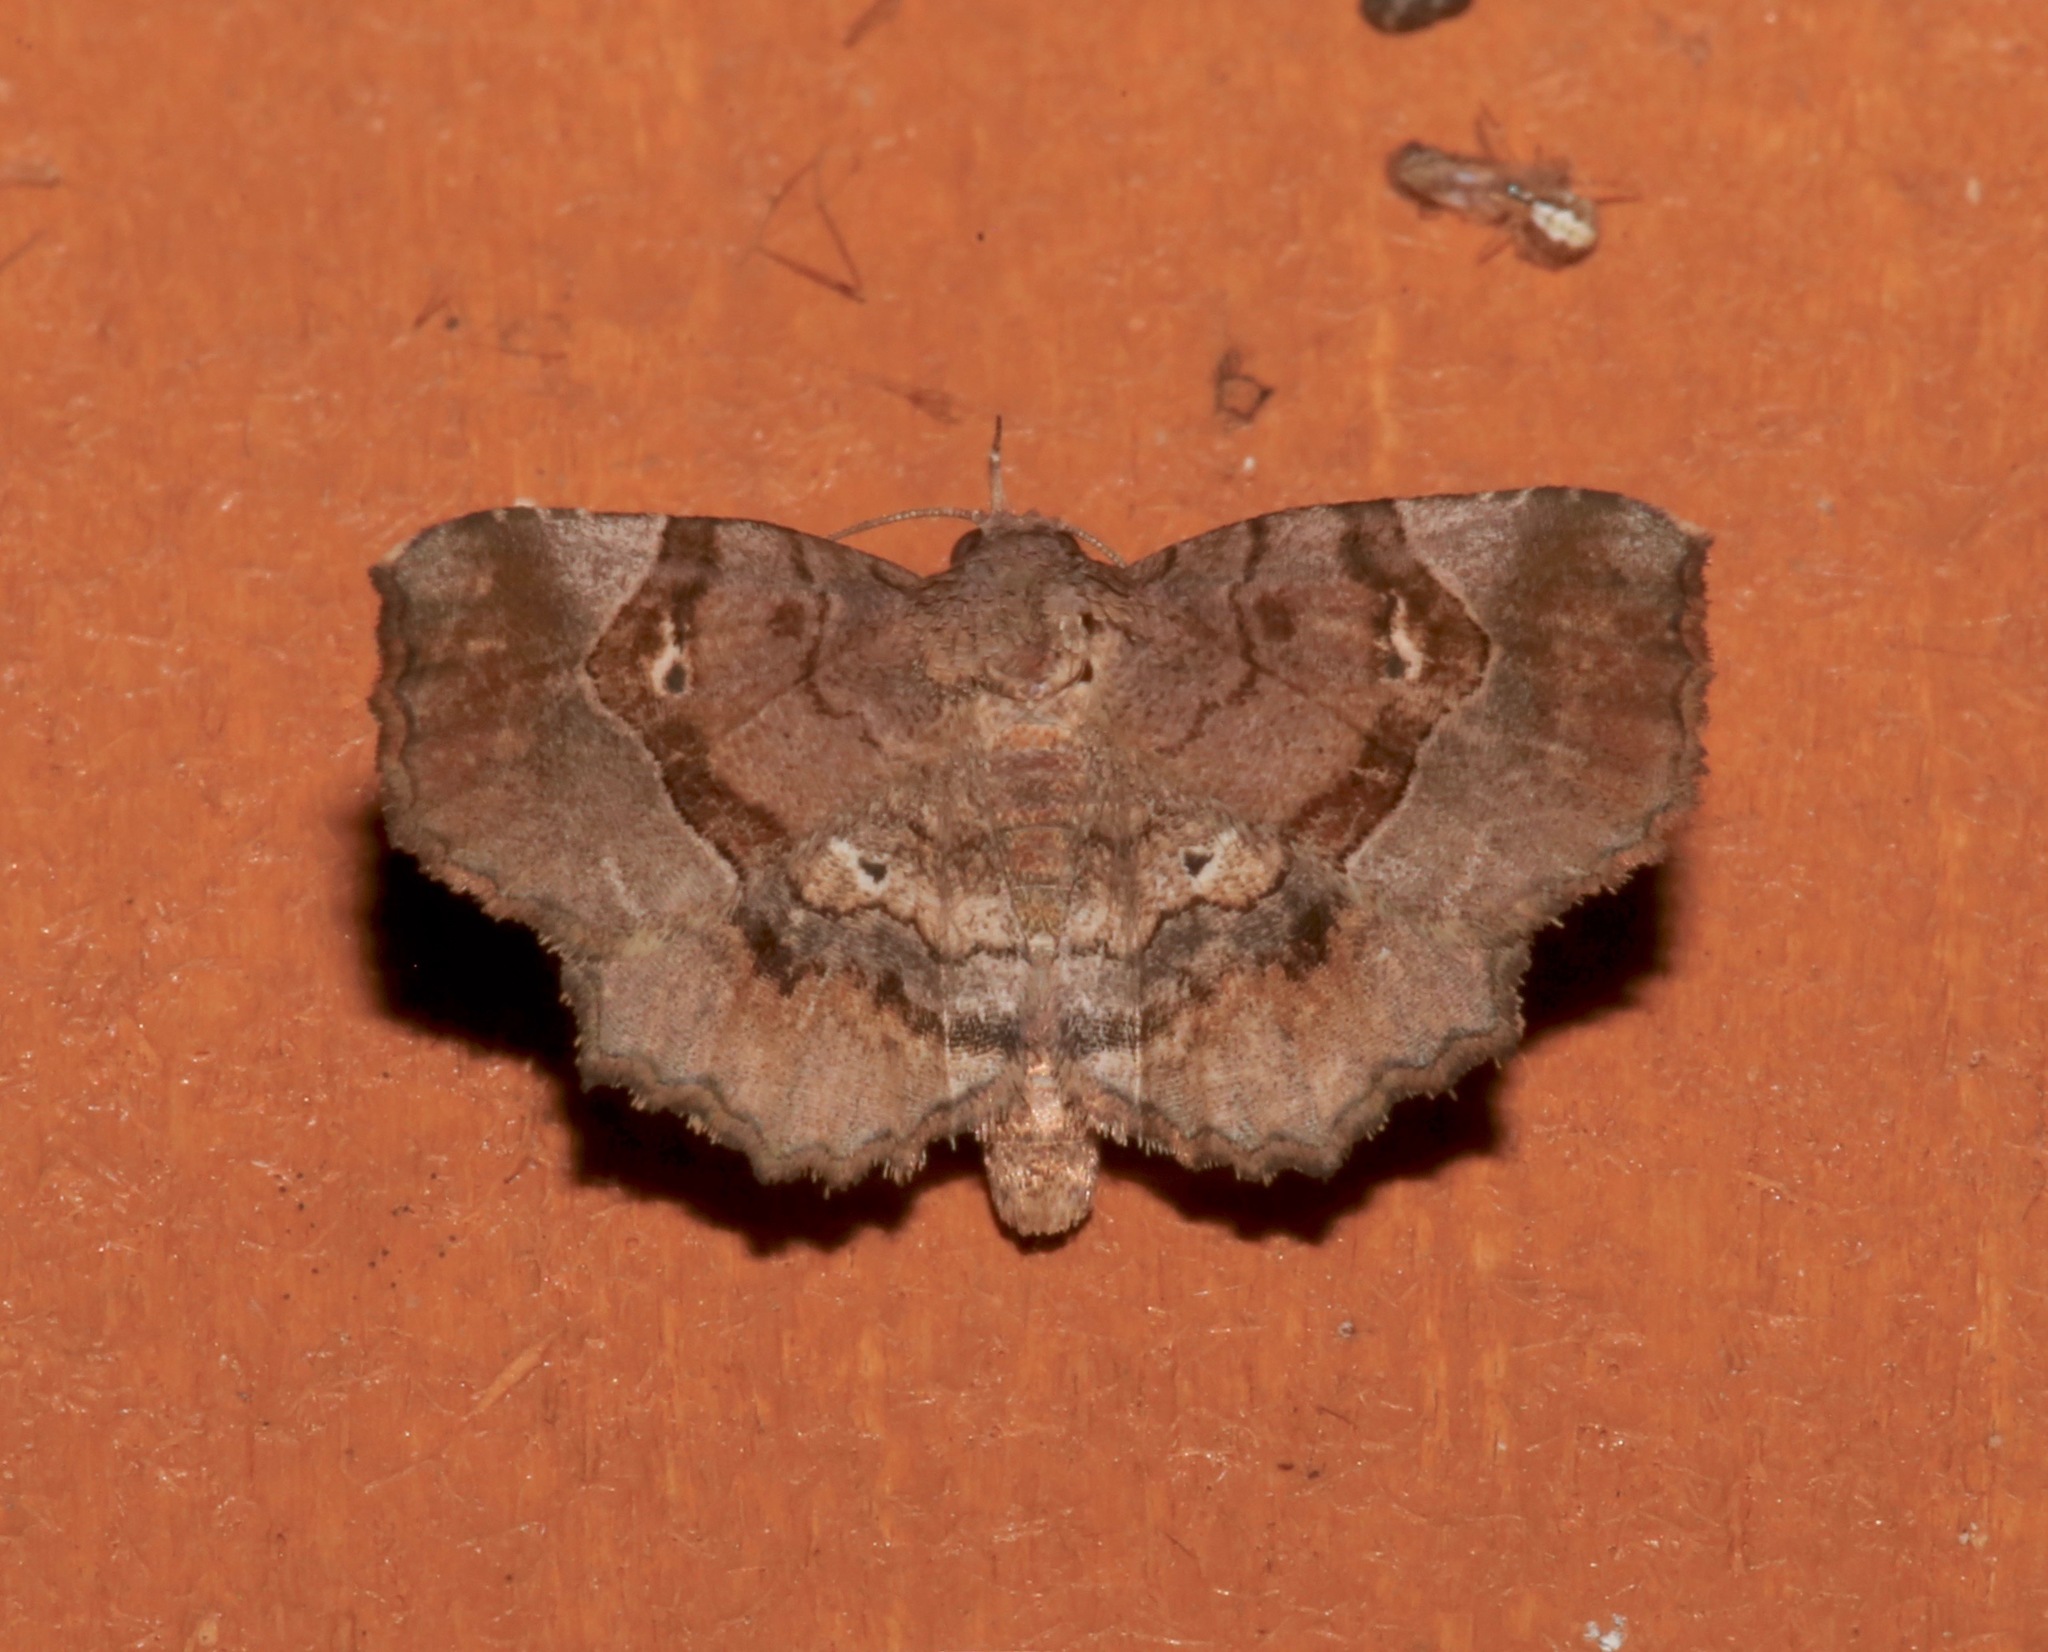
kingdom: Animalia
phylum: Arthropoda
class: Insecta
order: Lepidoptera
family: Erebidae
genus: Pangrapta
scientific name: Pangrapta decoralis
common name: Decorated owlet
